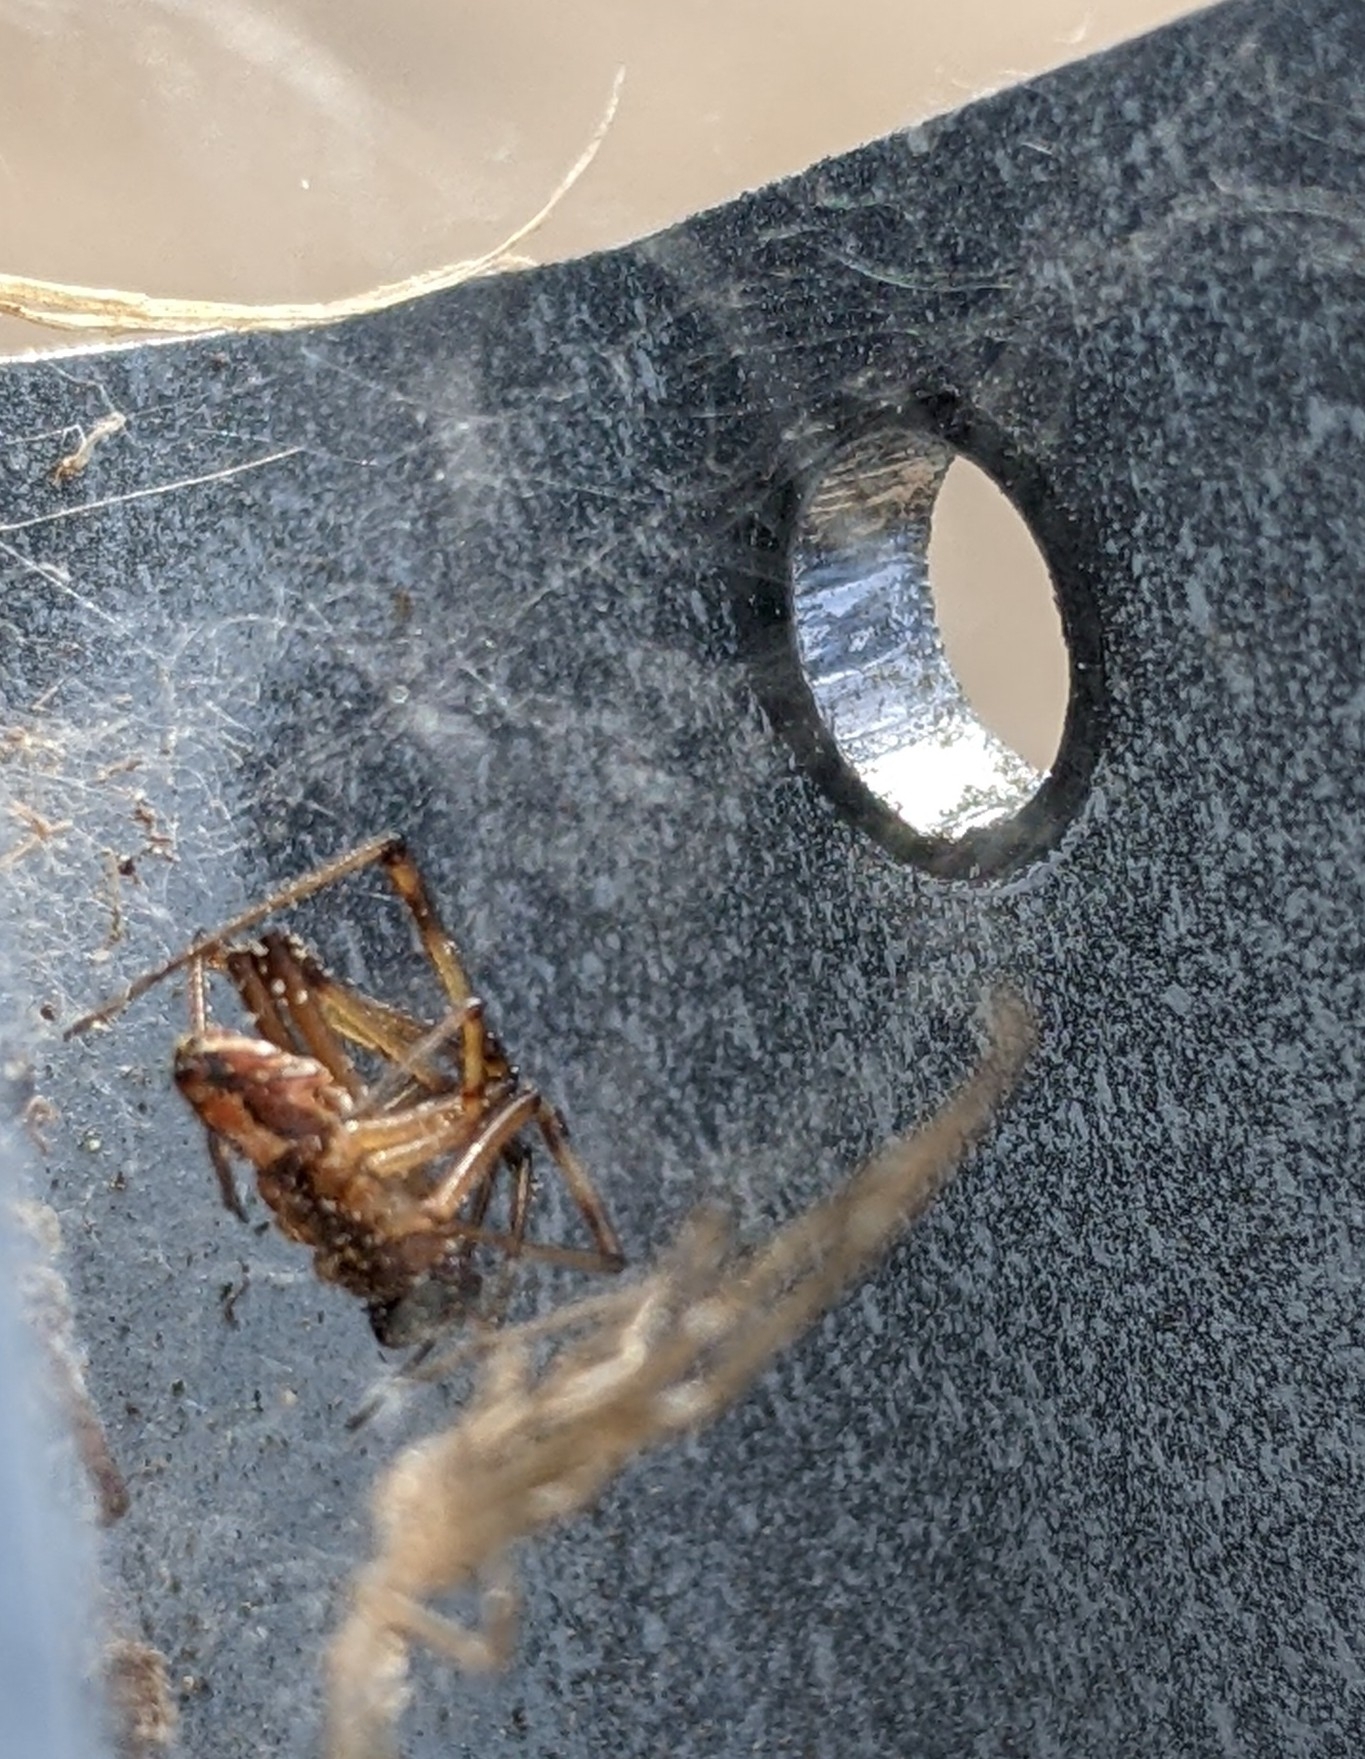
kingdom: Animalia
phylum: Arthropoda
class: Arachnida
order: Araneae
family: Theridiidae
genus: Latrodectus
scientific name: Latrodectus hesperus
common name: Western black widow
